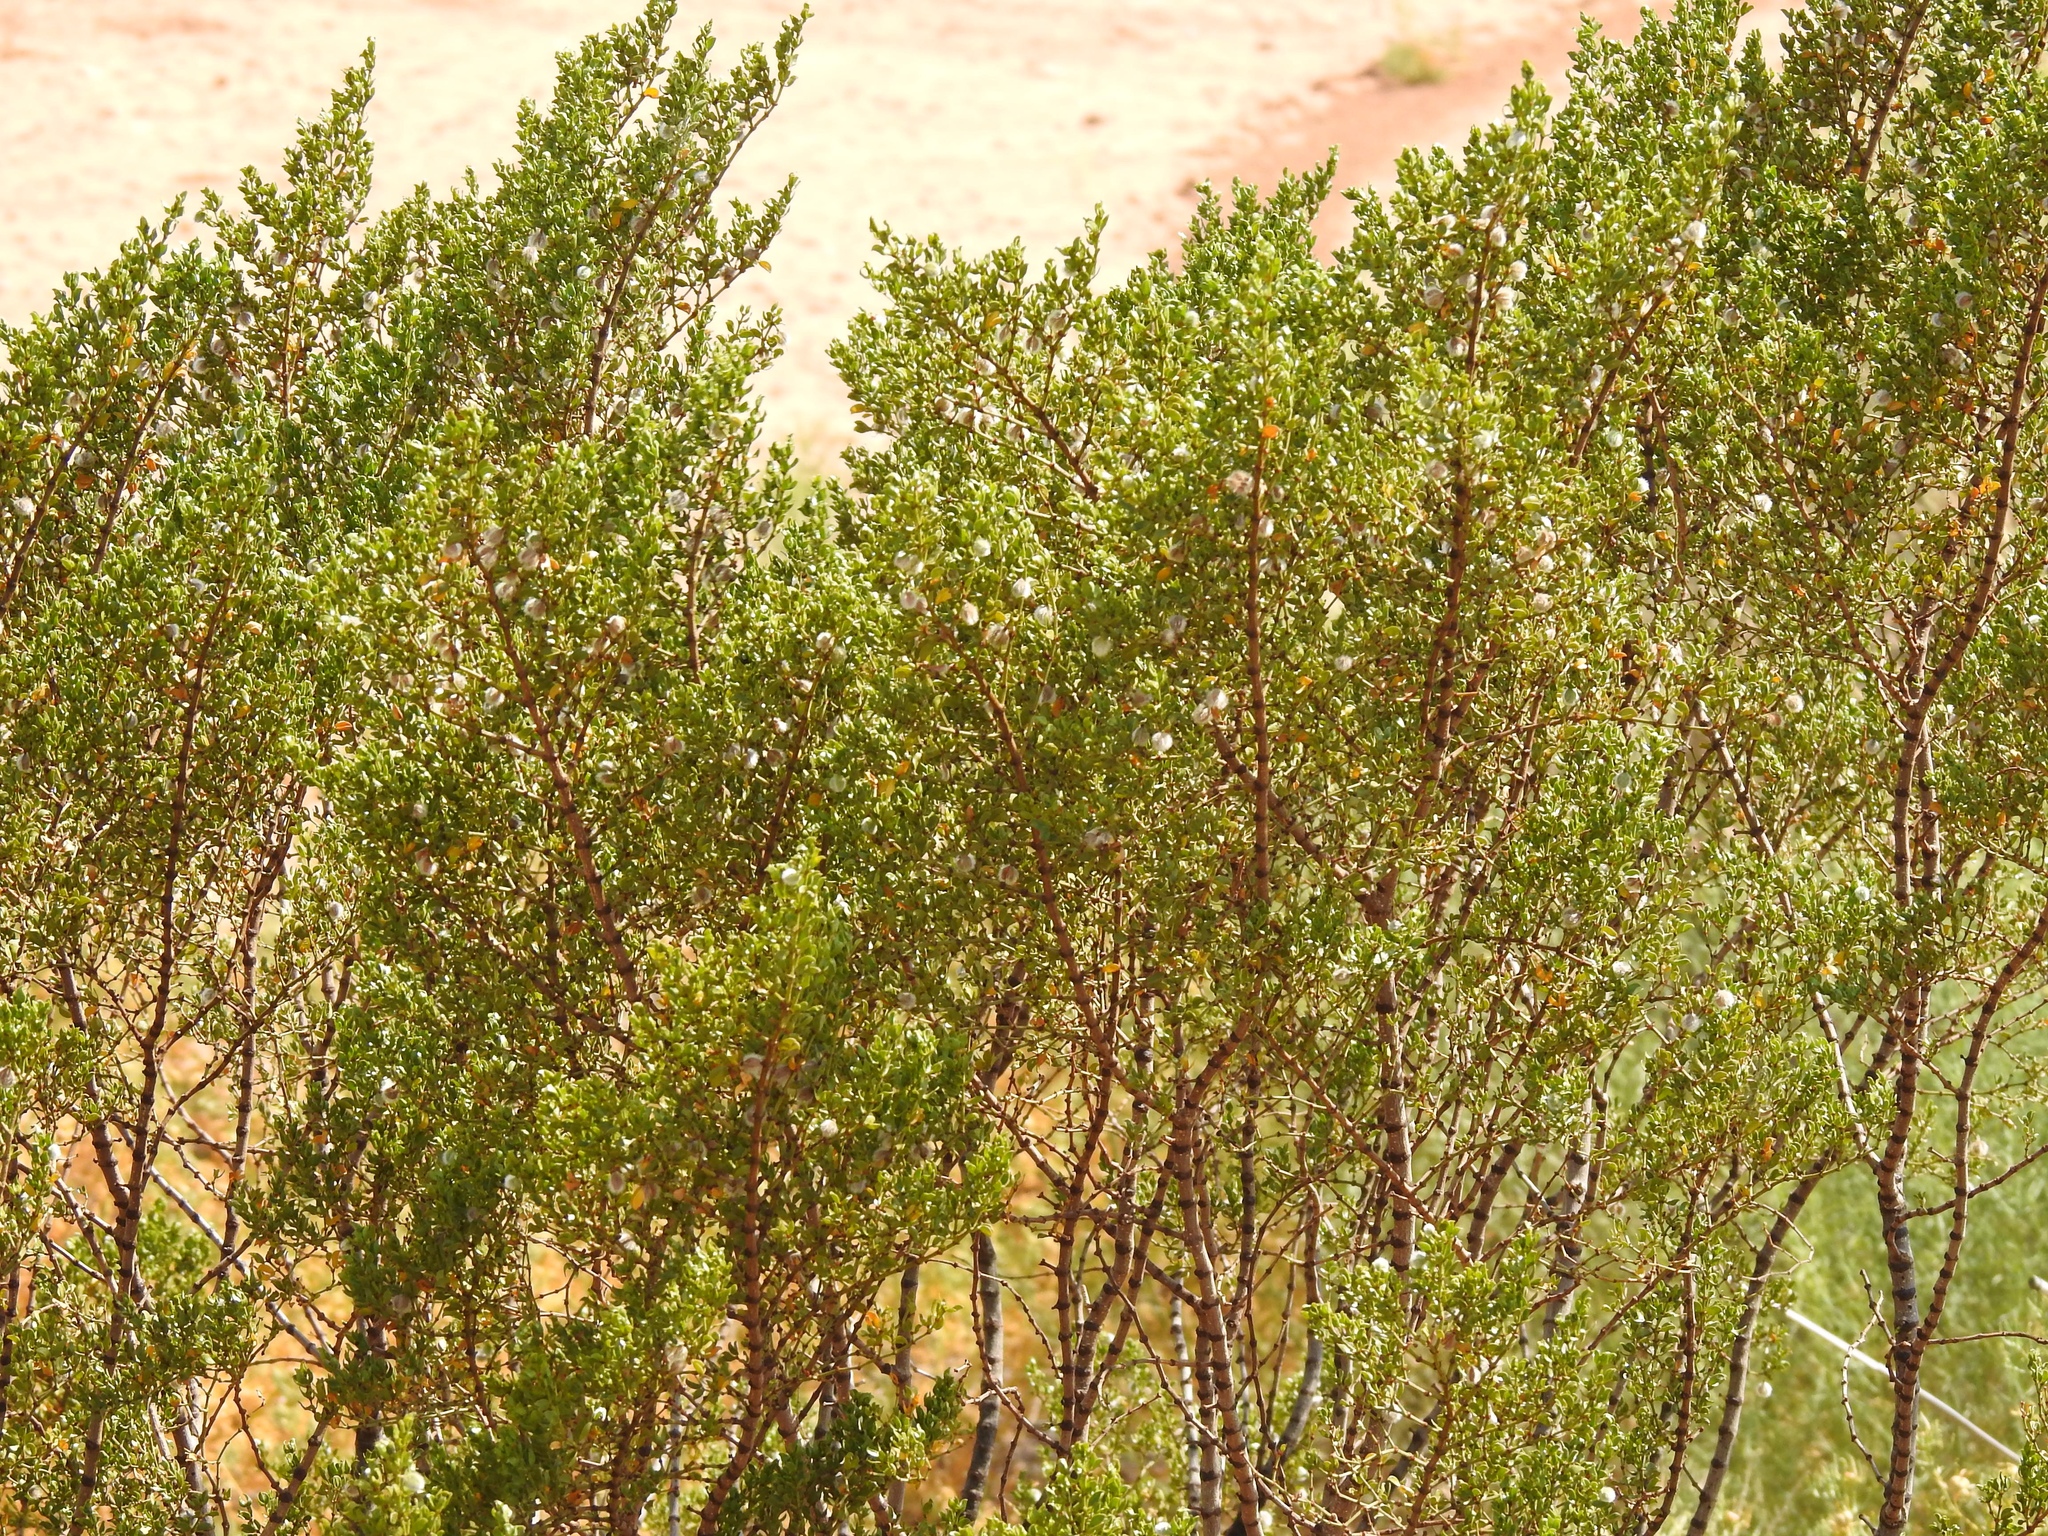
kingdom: Plantae
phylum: Tracheophyta
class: Magnoliopsida
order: Zygophyllales
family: Zygophyllaceae
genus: Larrea
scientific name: Larrea tridentata
